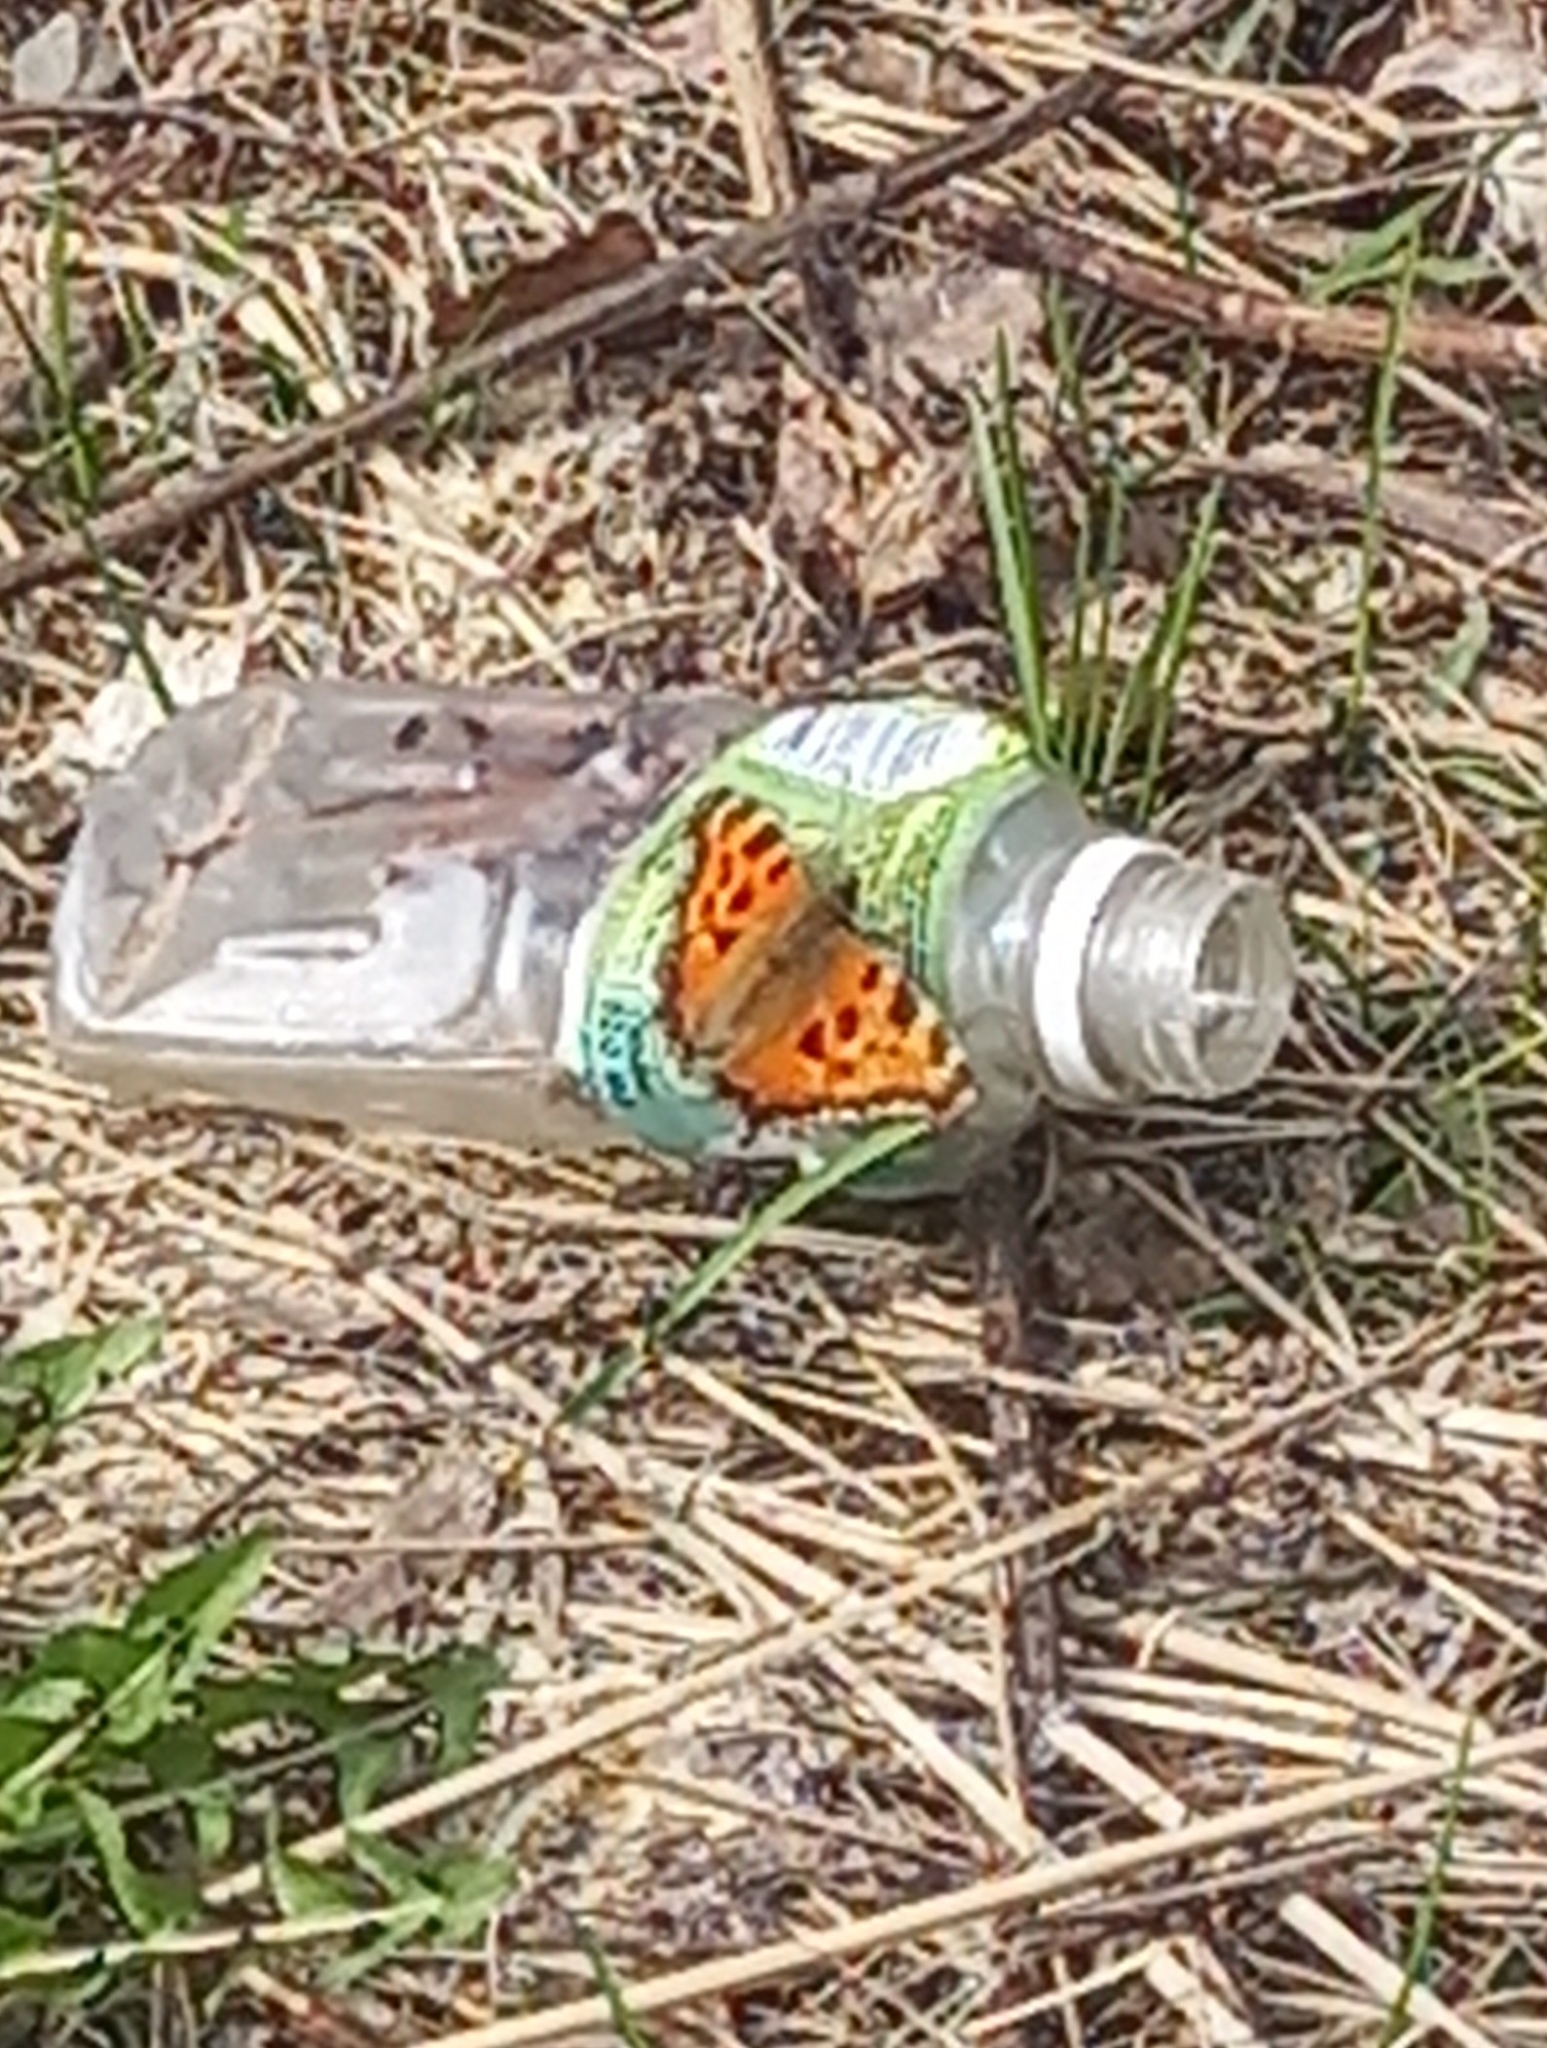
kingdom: Animalia
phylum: Arthropoda
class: Insecta
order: Lepidoptera
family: Nymphalidae
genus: Nymphalis
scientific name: Nymphalis xanthomelas
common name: Scarce tortoiseshell
